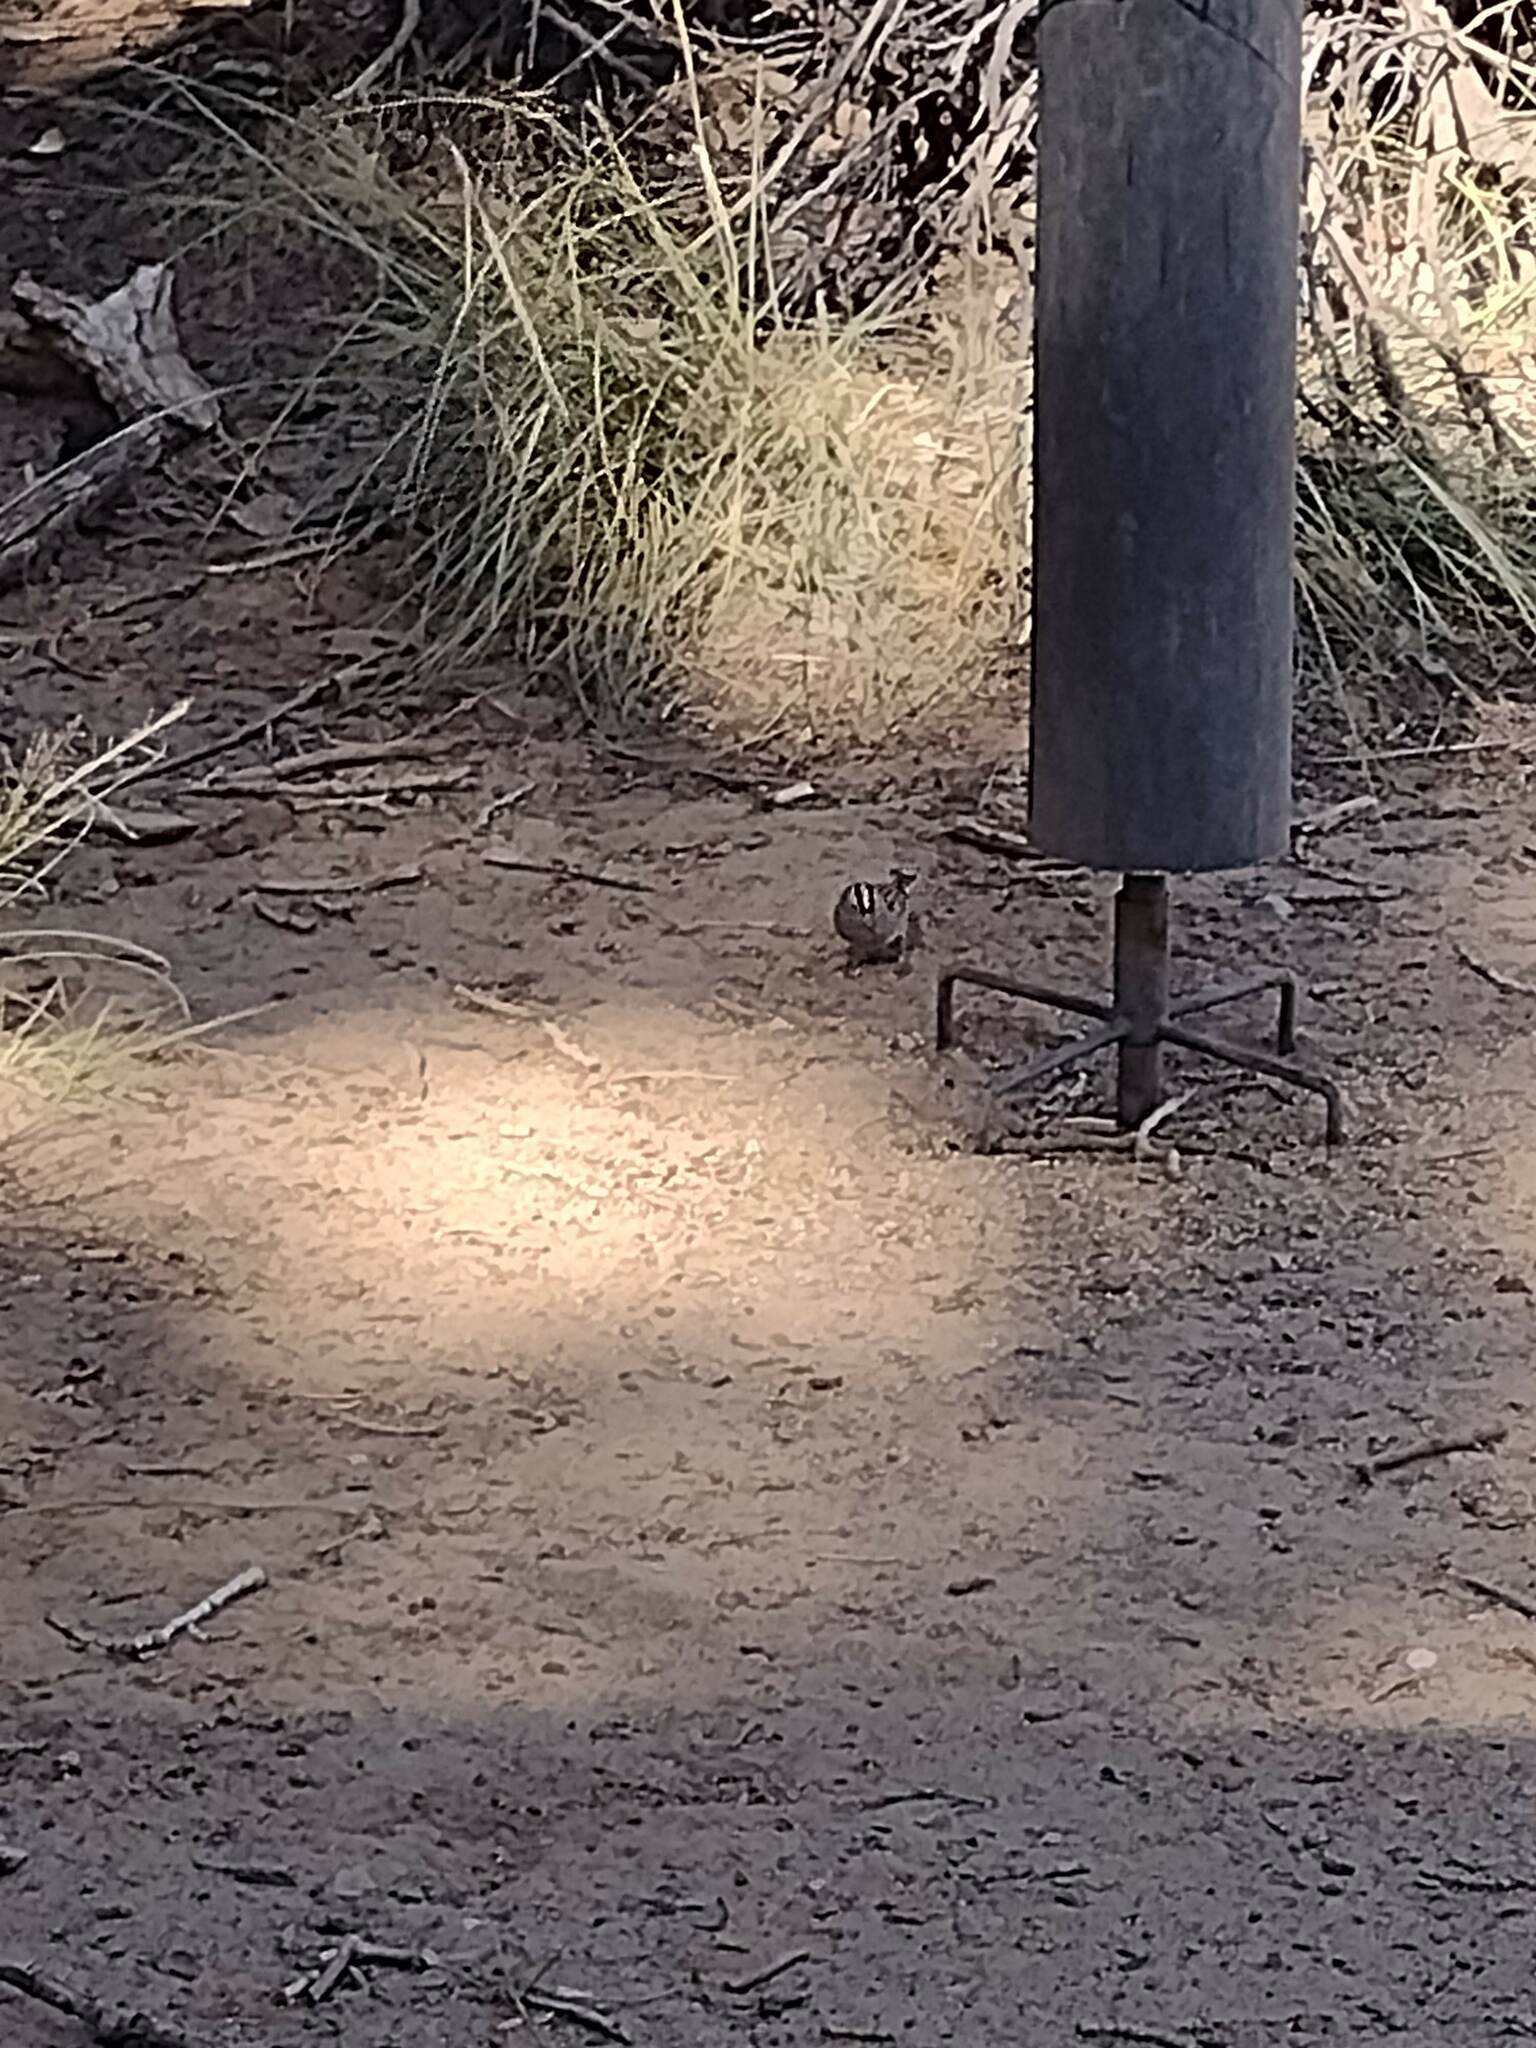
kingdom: Animalia
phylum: Chordata
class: Aves
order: Passeriformes
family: Passerellidae
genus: Zonotrichia
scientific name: Zonotrichia leucophrys
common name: White-crowned sparrow
